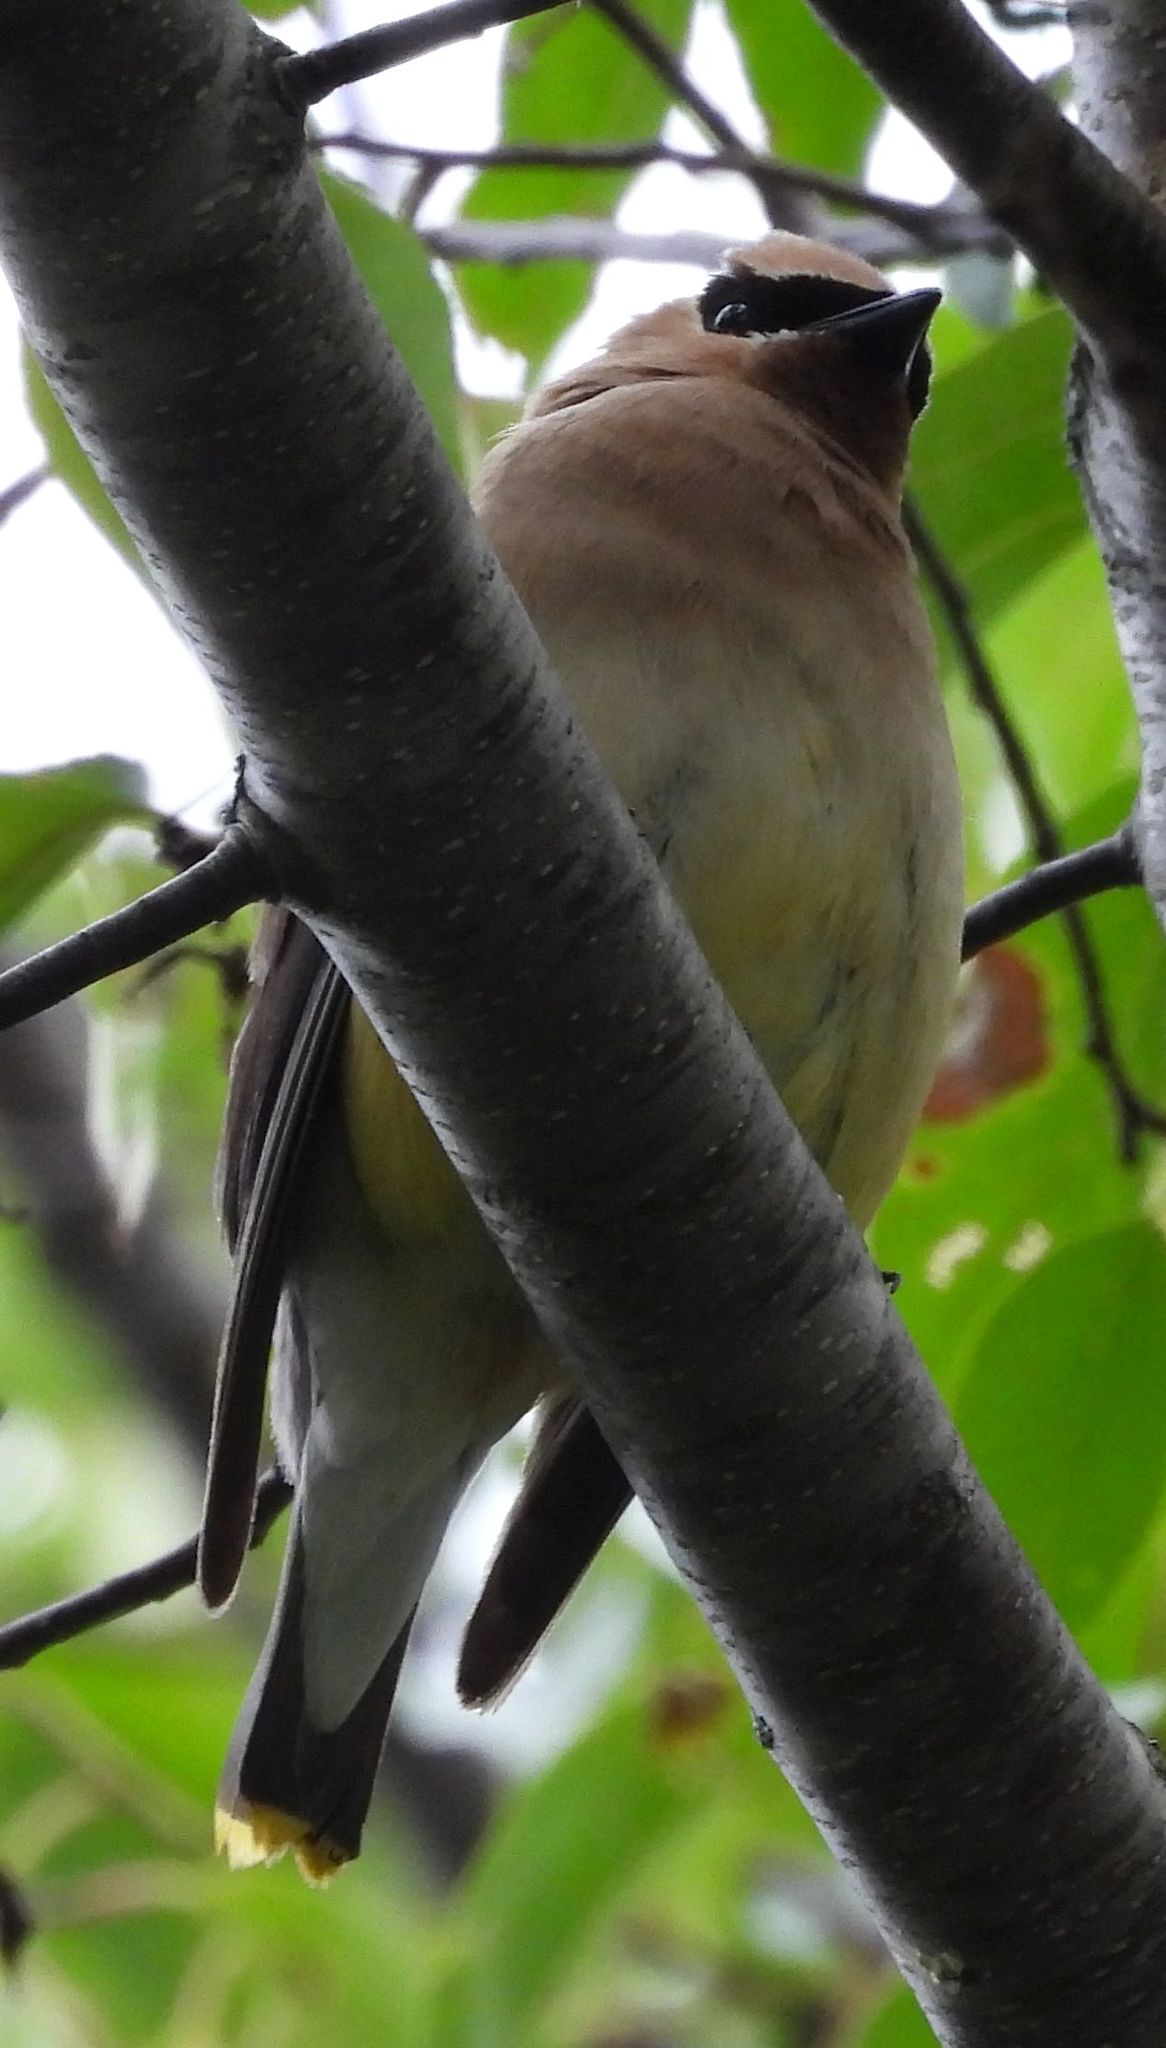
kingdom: Animalia
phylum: Chordata
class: Aves
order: Passeriformes
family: Bombycillidae
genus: Bombycilla
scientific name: Bombycilla cedrorum
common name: Cedar waxwing
